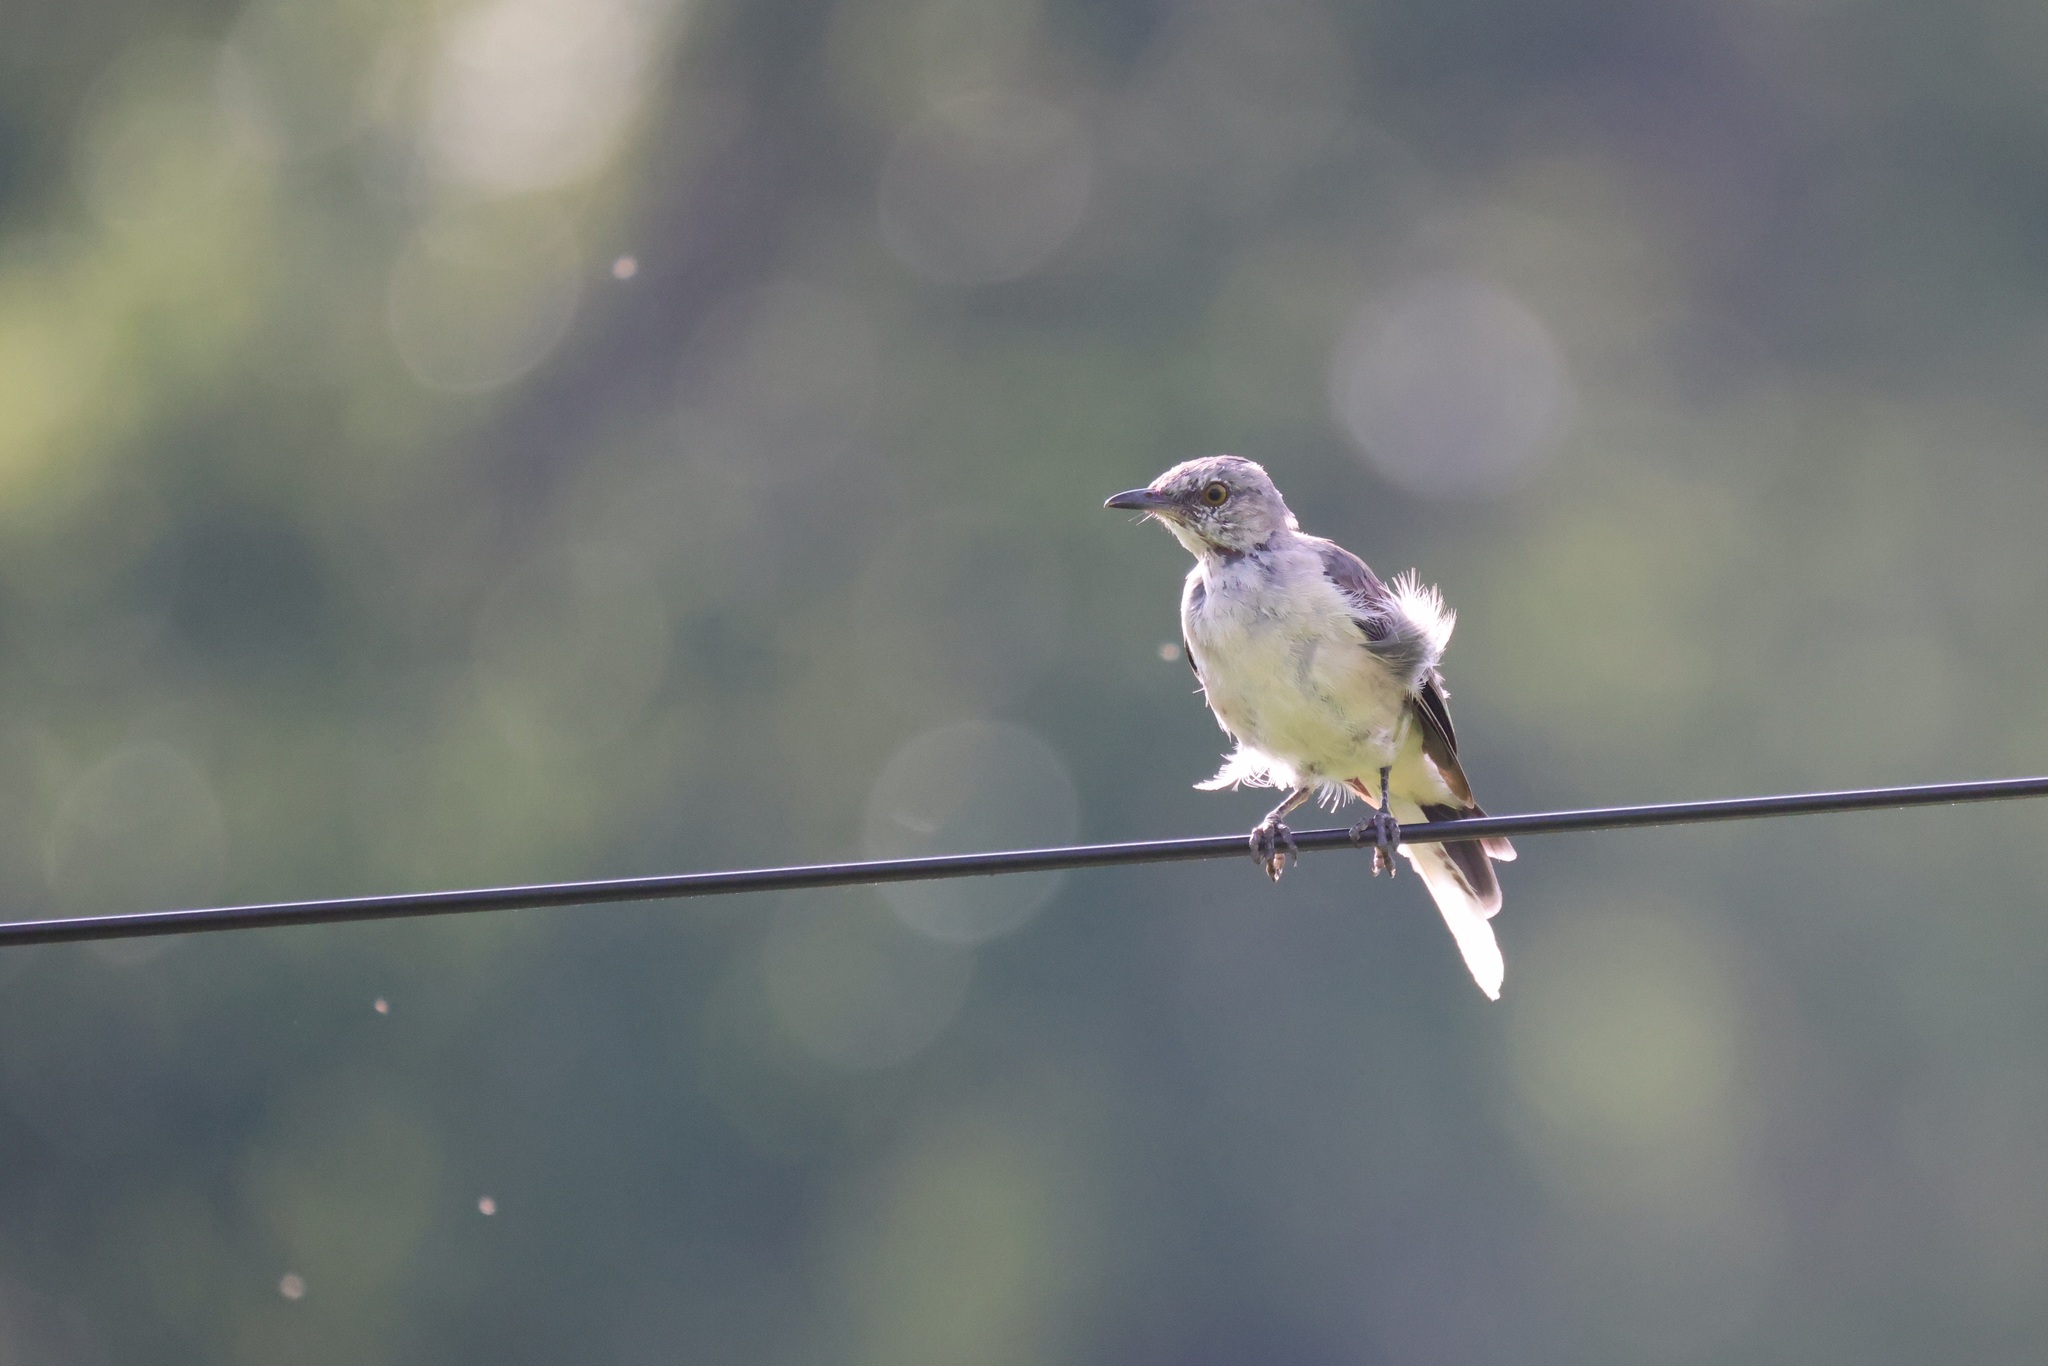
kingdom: Animalia
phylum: Chordata
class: Aves
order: Passeriformes
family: Mimidae
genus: Mimus
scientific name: Mimus polyglottos
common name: Northern mockingbird
